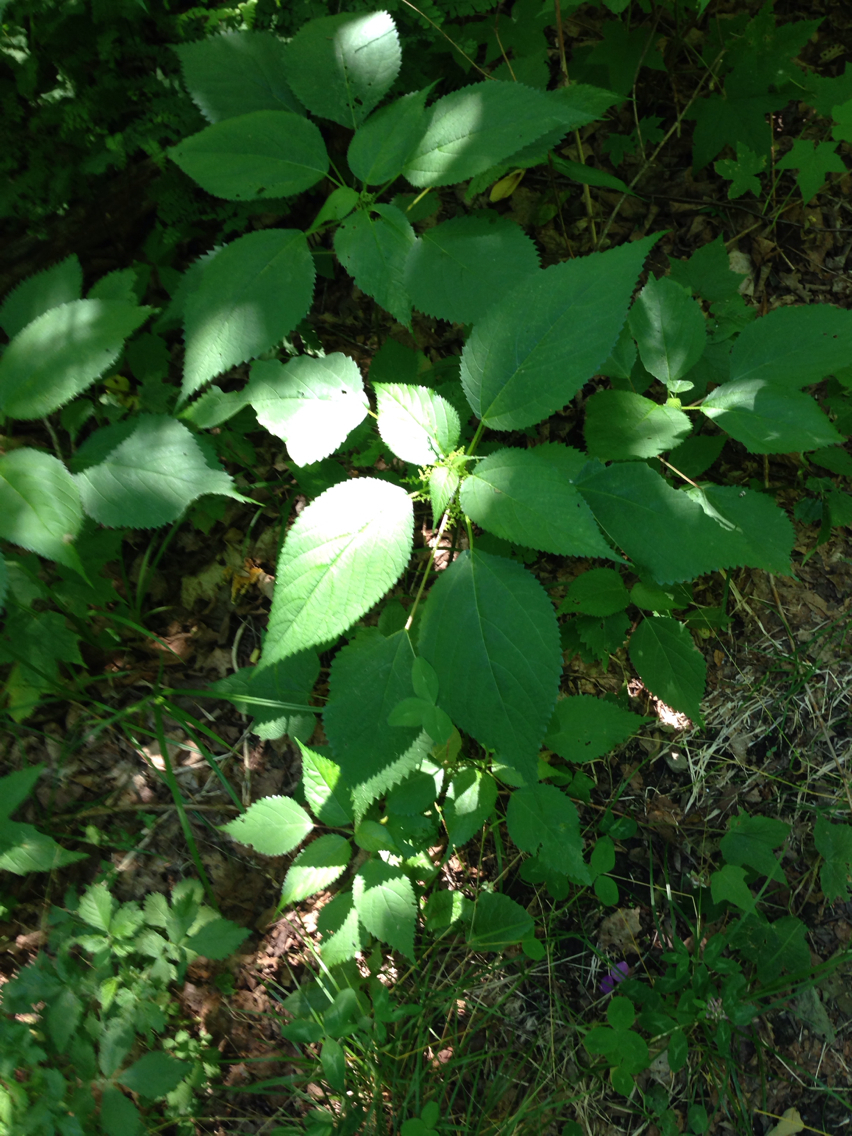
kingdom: Plantae
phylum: Tracheophyta
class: Magnoliopsida
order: Rosales
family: Urticaceae
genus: Laportea
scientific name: Laportea canadensis
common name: Canada nettle
